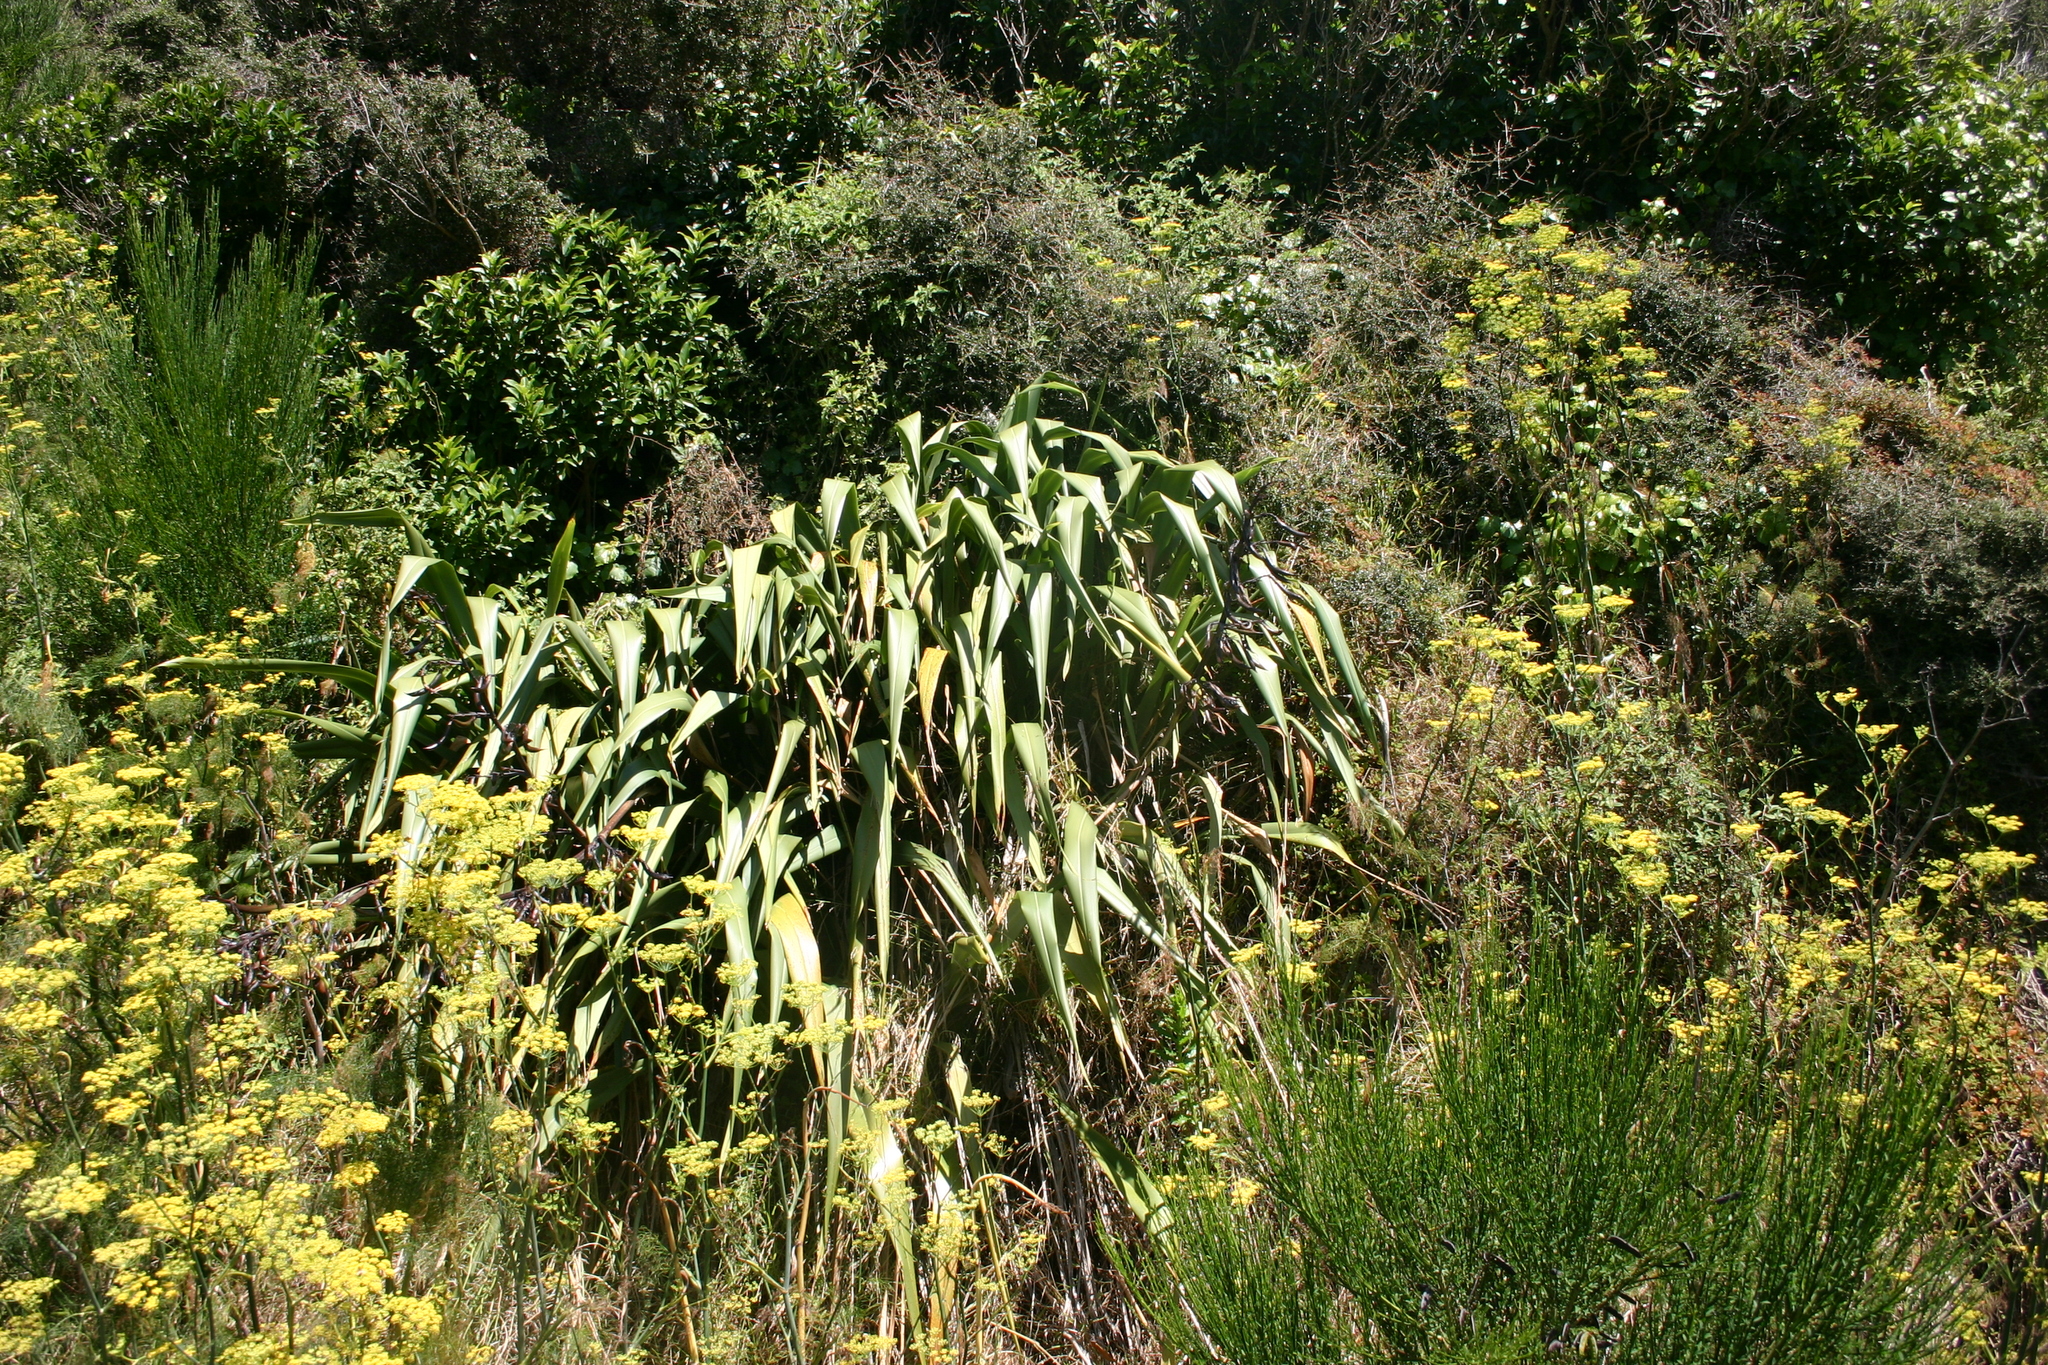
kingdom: Plantae
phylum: Tracheophyta
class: Liliopsida
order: Asparagales
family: Asphodelaceae
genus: Phormium
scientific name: Phormium colensoi
